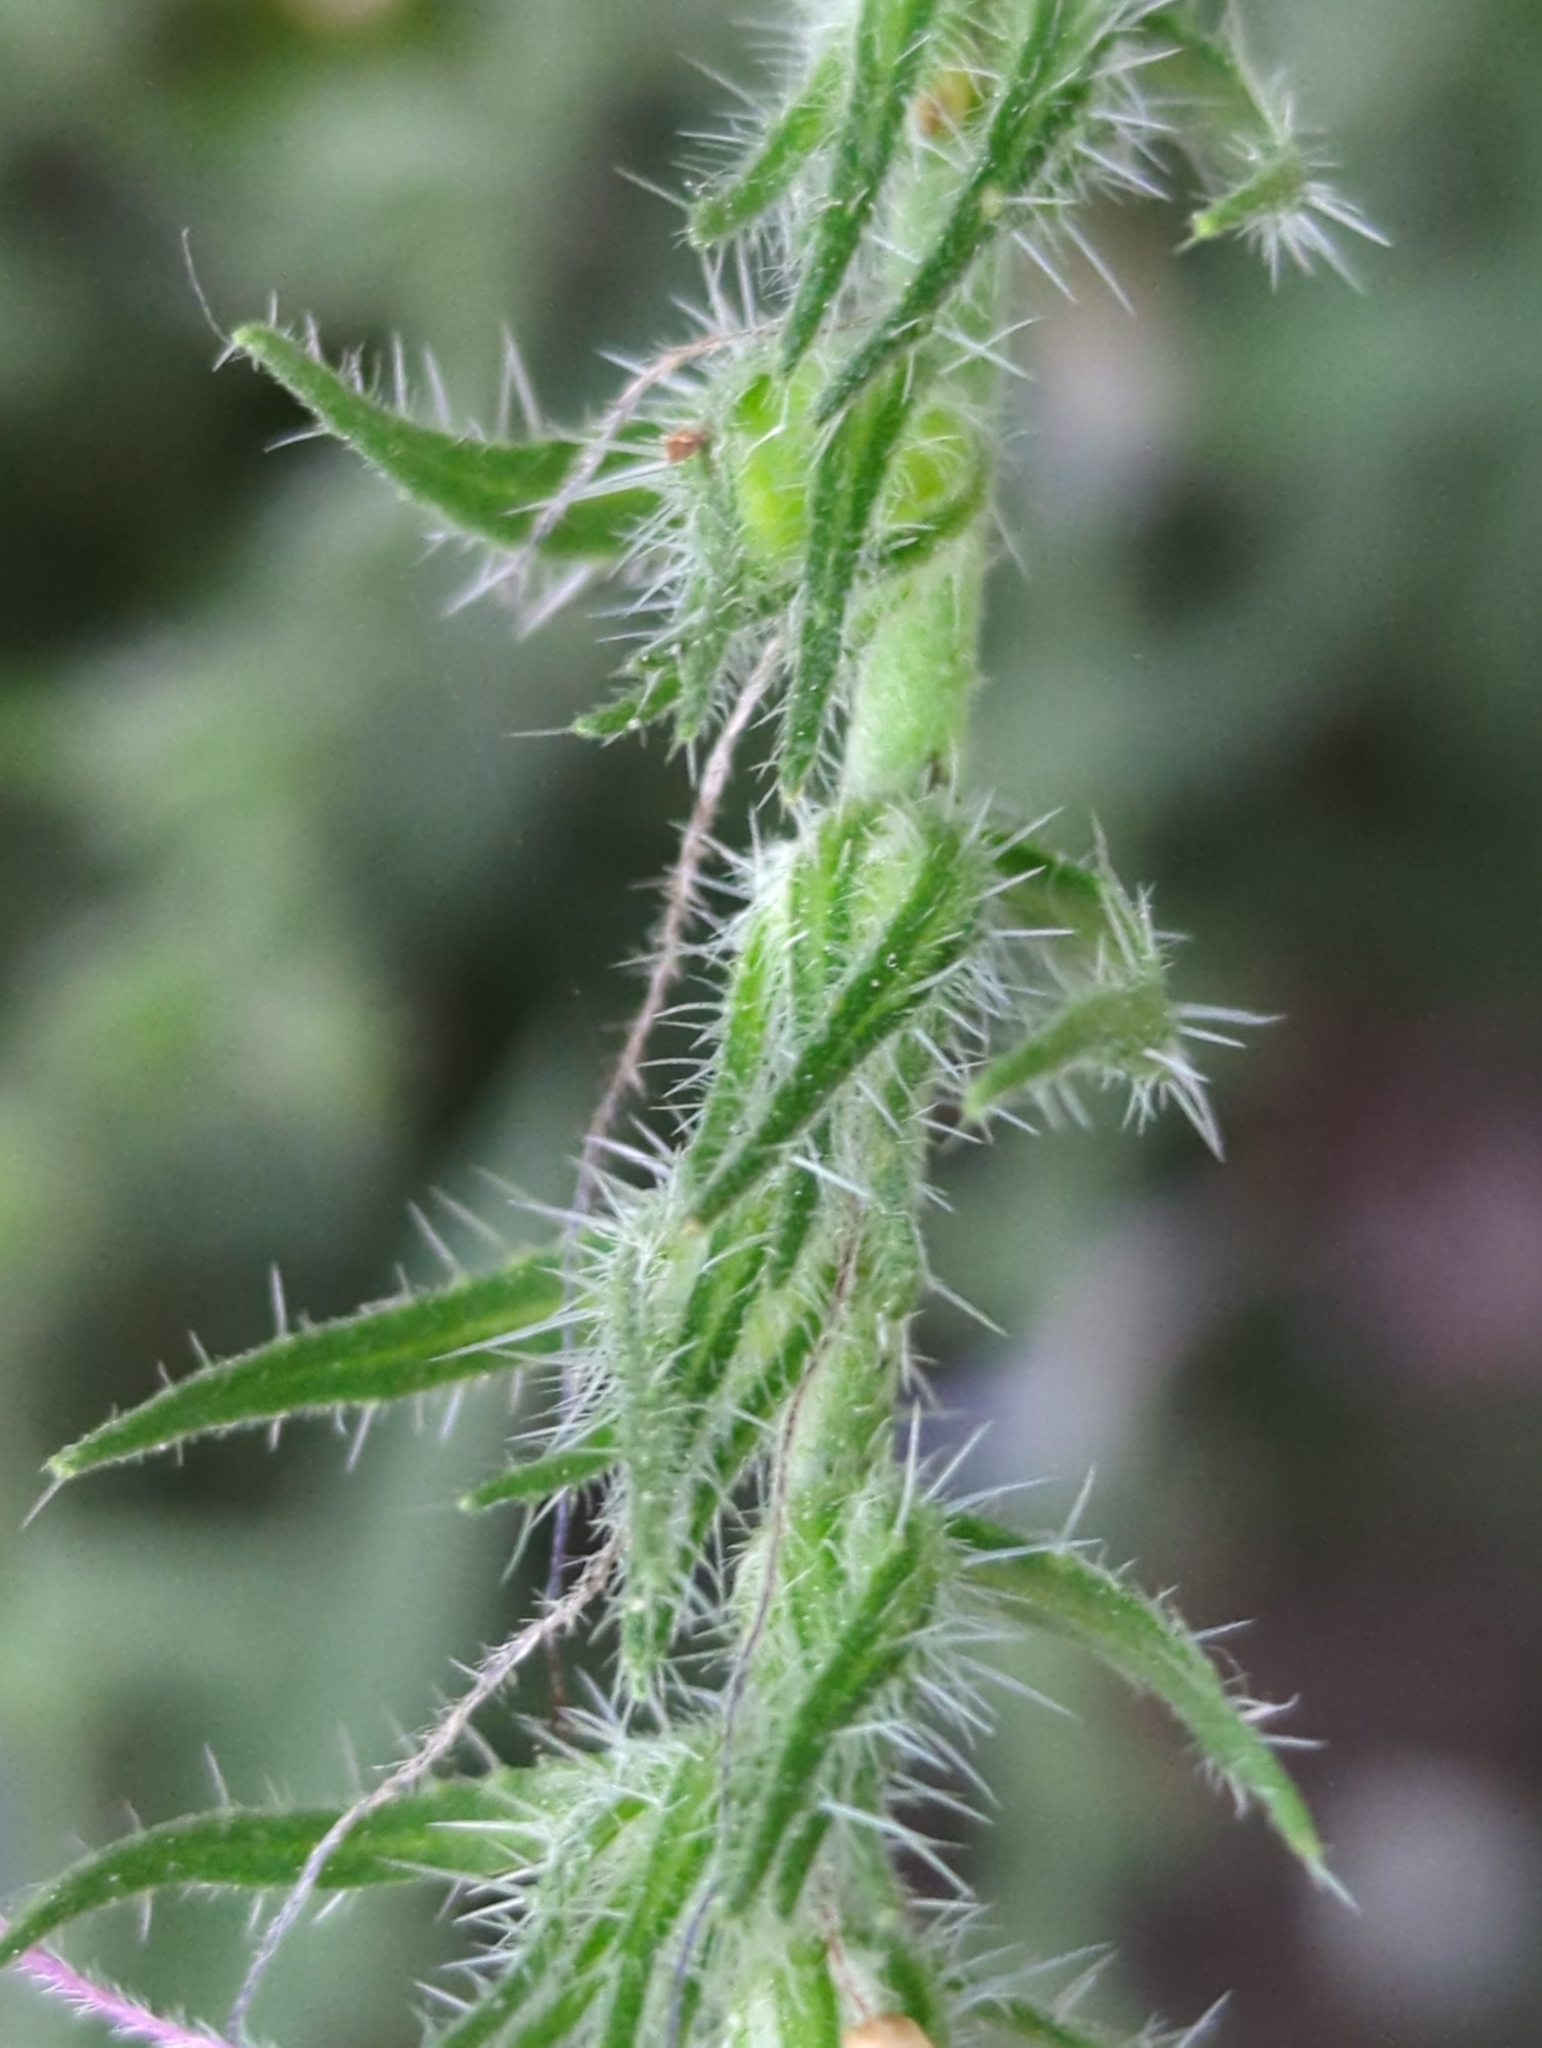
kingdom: Plantae
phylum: Tracheophyta
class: Magnoliopsida
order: Boraginales
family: Boraginaceae
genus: Echium
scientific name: Echium vulgare
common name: Common viper's bugloss
